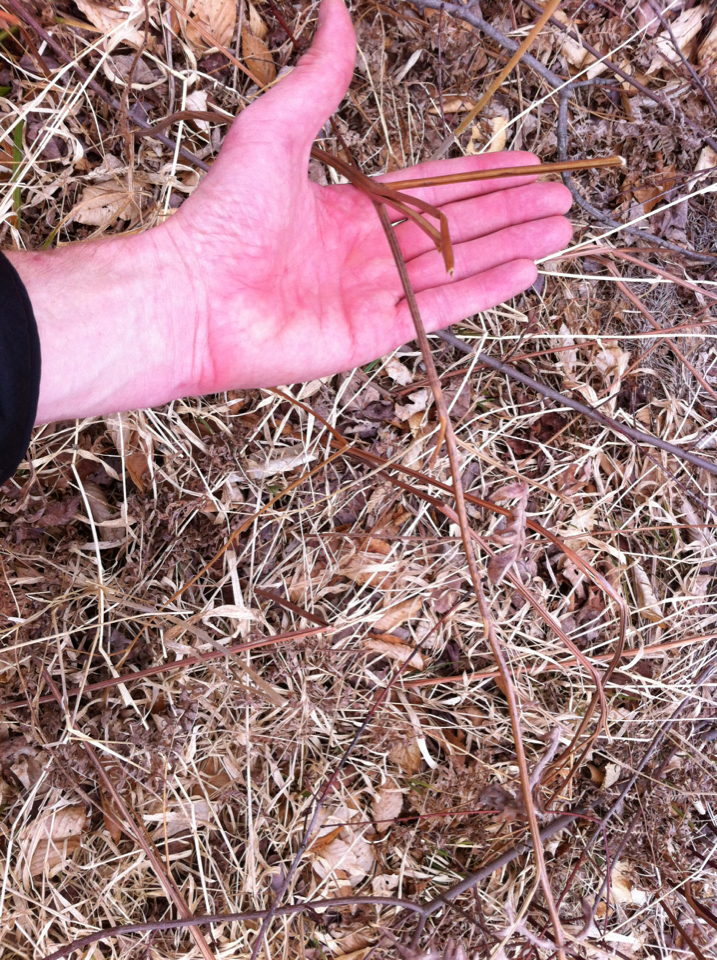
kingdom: Plantae
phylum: Tracheophyta
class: Polypodiopsida
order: Polypodiales
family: Dennstaedtiaceae
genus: Pteridium
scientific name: Pteridium aquilinum
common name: Bracken
